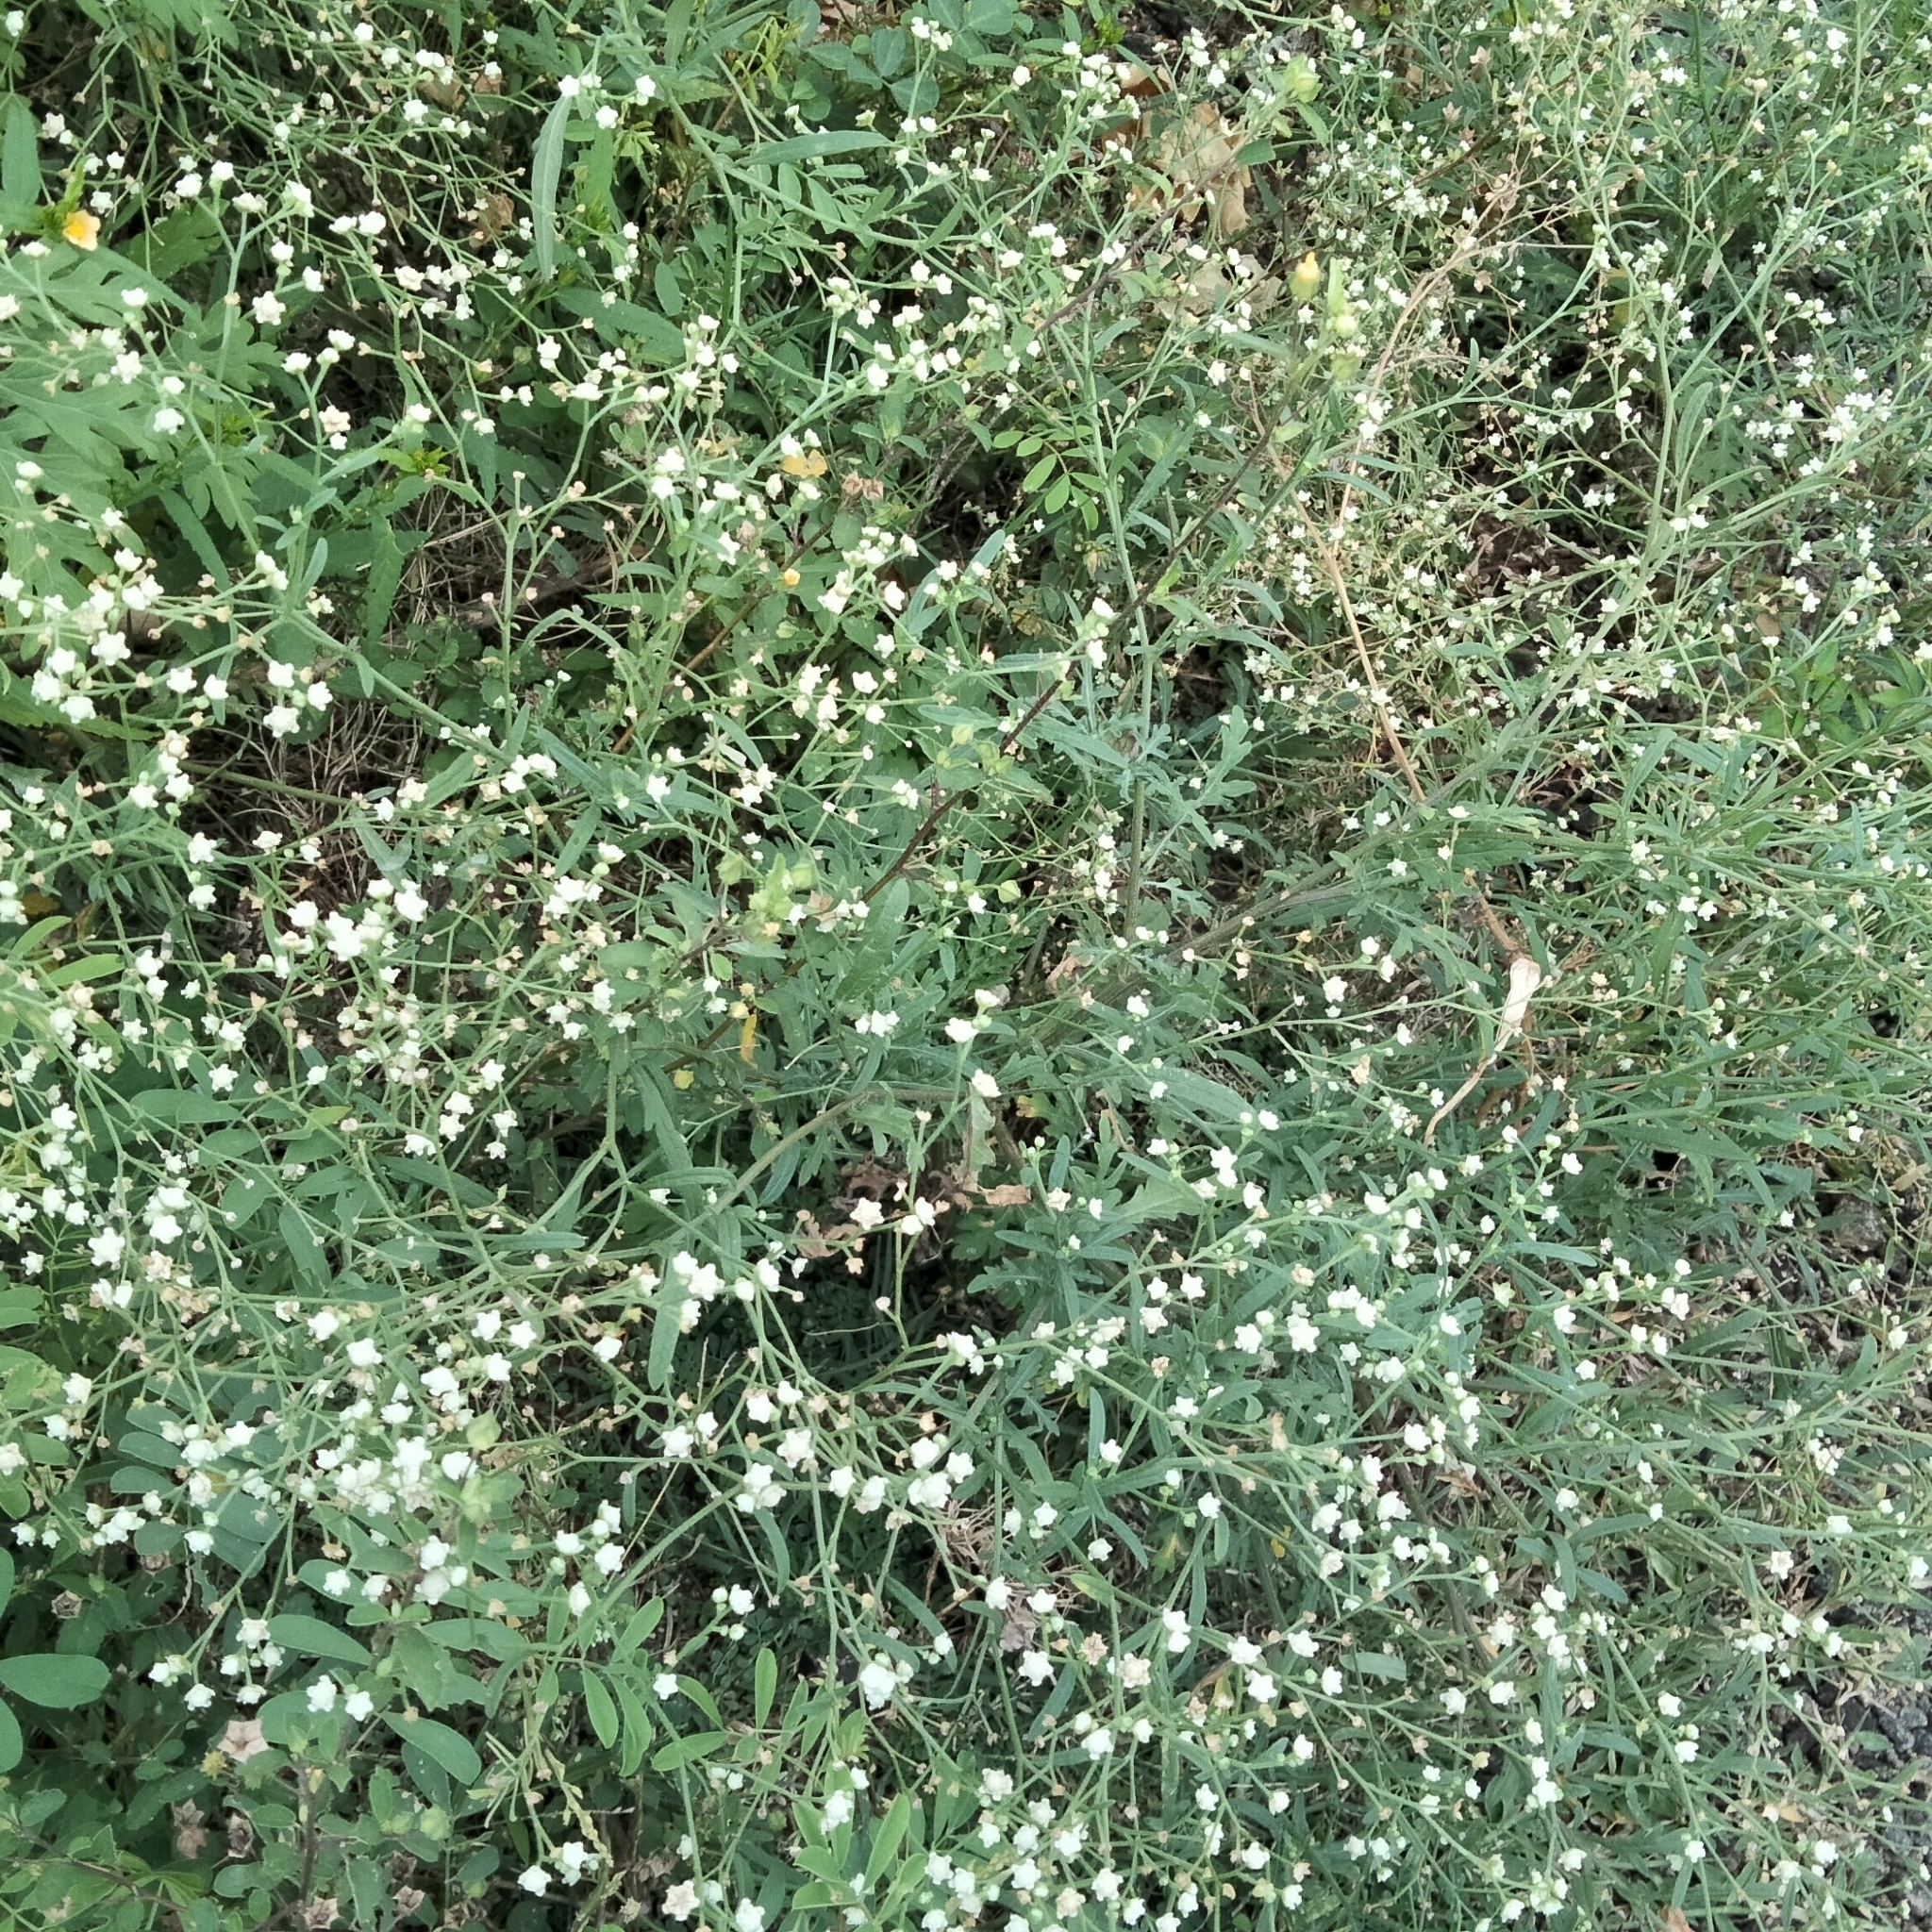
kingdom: Plantae
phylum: Tracheophyta
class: Magnoliopsida
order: Asterales
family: Asteraceae
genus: Parthenium
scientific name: Parthenium hysterophorus
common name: Santa maria feverfew
